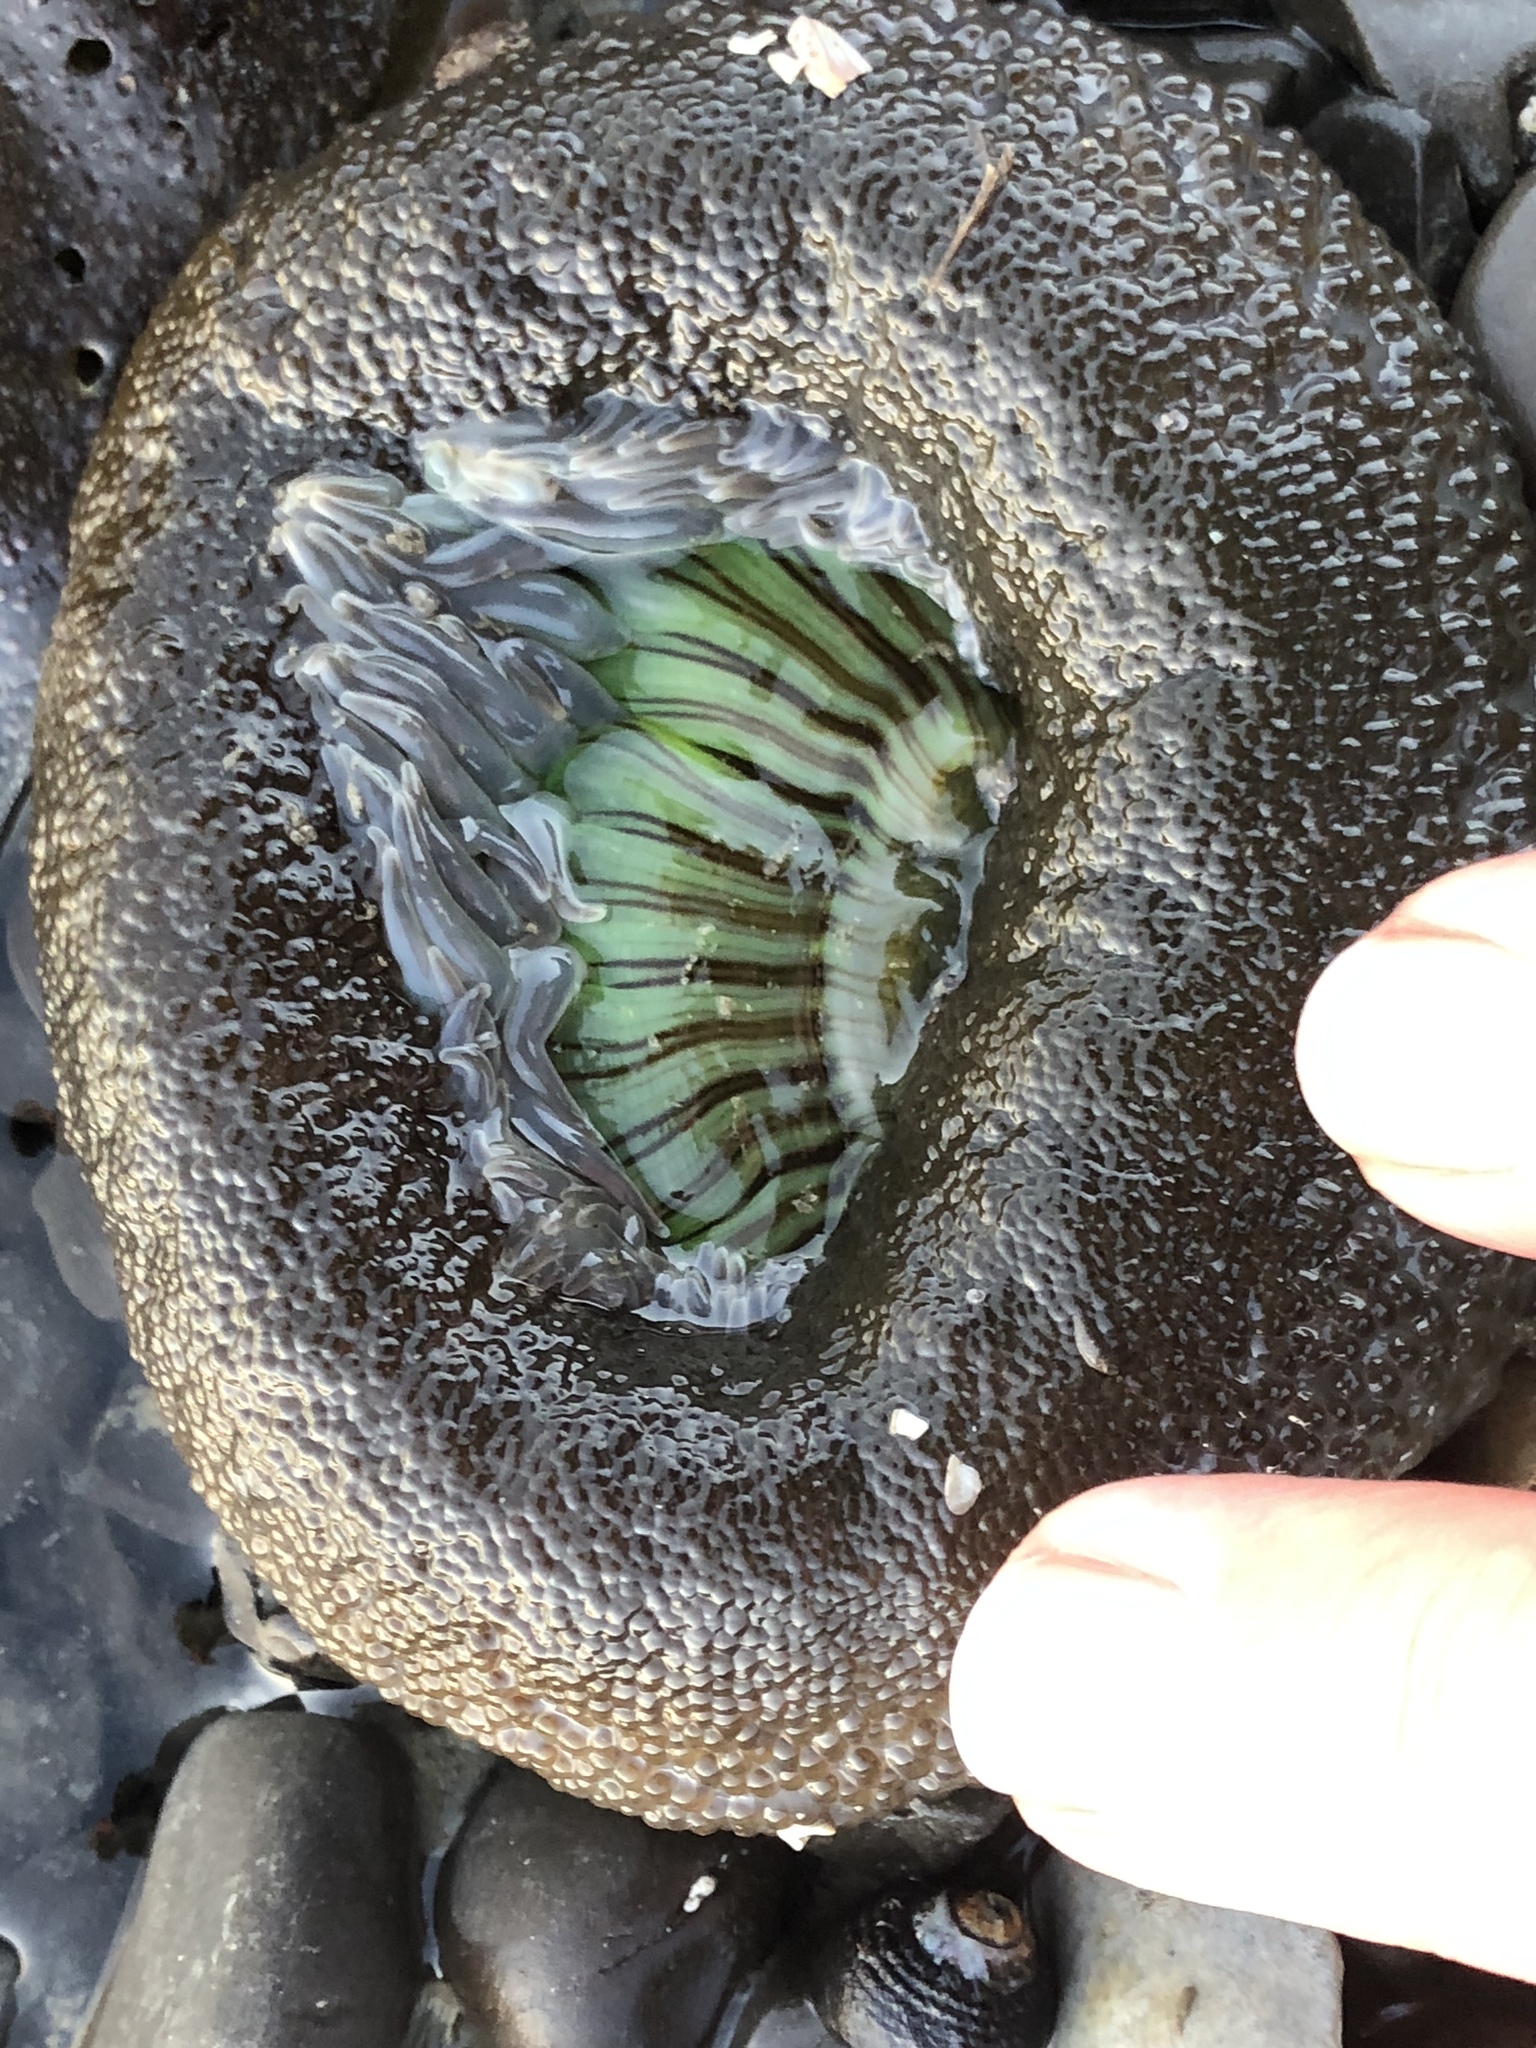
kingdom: Animalia
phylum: Cnidaria
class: Anthozoa
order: Actiniaria
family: Actiniidae
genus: Anthopleura
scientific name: Anthopleura sola
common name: Sun anemone
